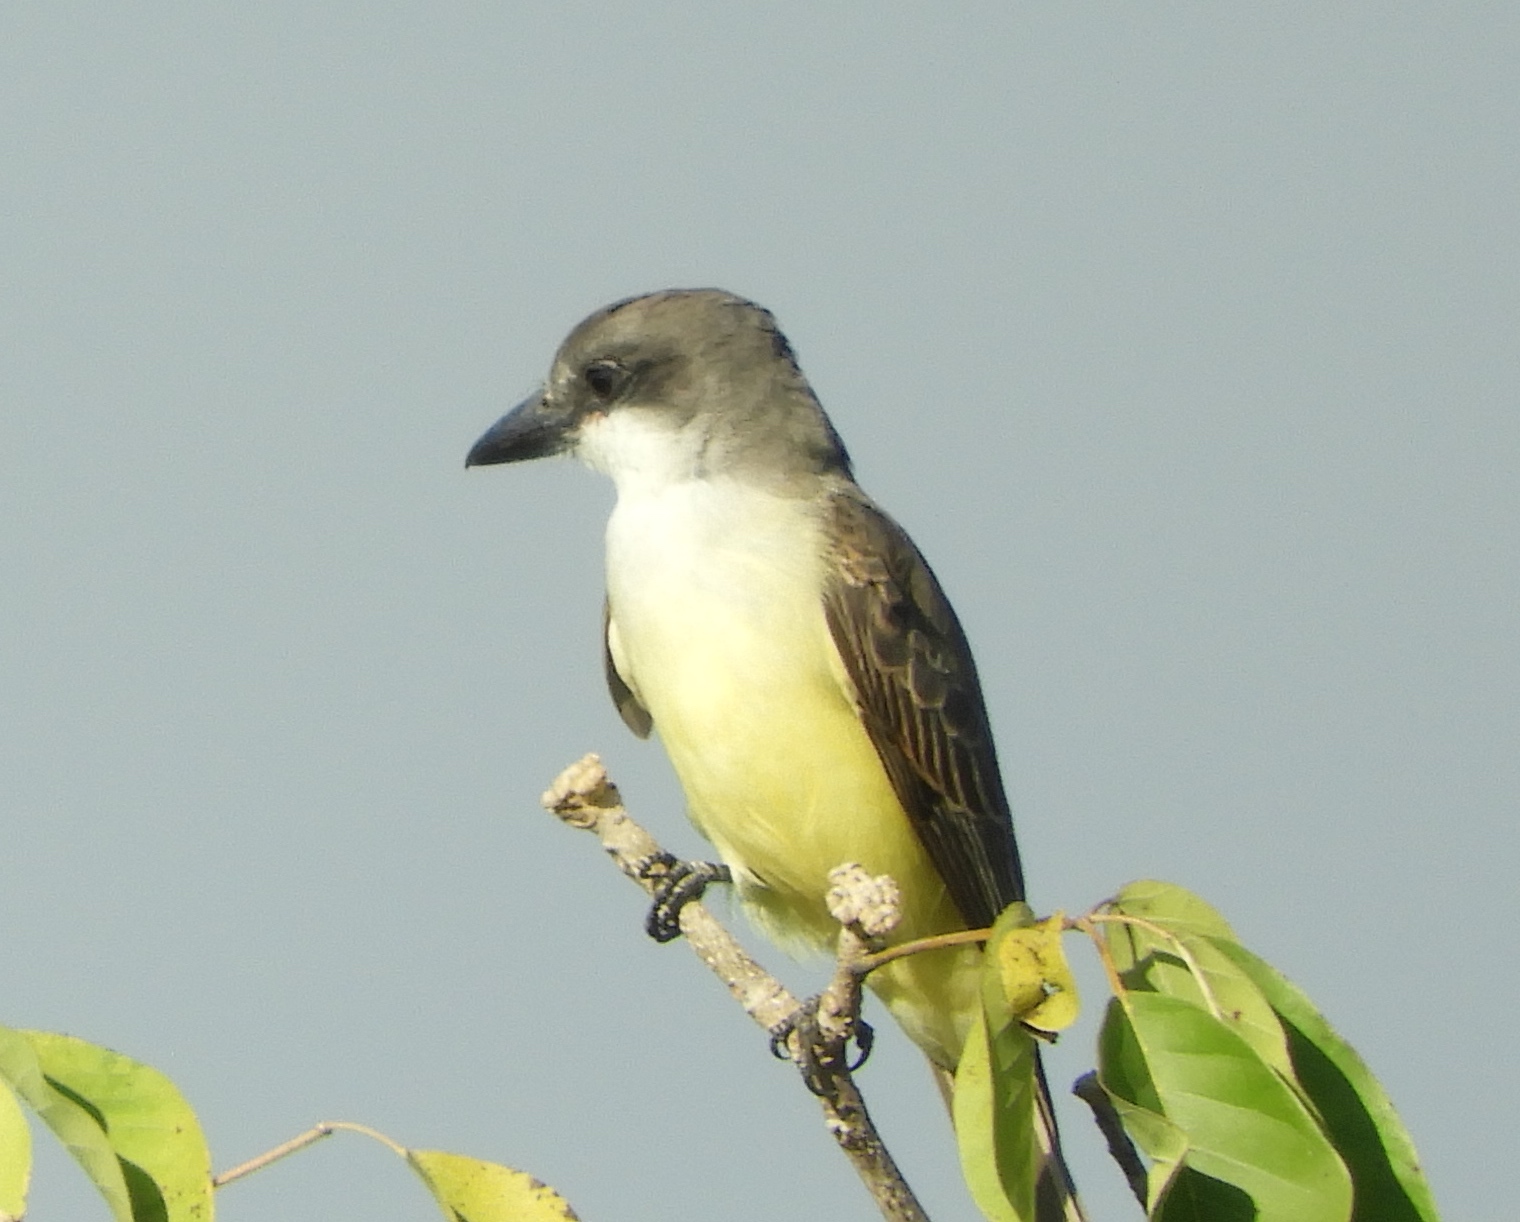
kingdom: Animalia
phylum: Chordata
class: Aves
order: Passeriformes
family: Tyrannidae
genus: Tyrannus
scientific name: Tyrannus crassirostris
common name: Thick-billed kingbird
